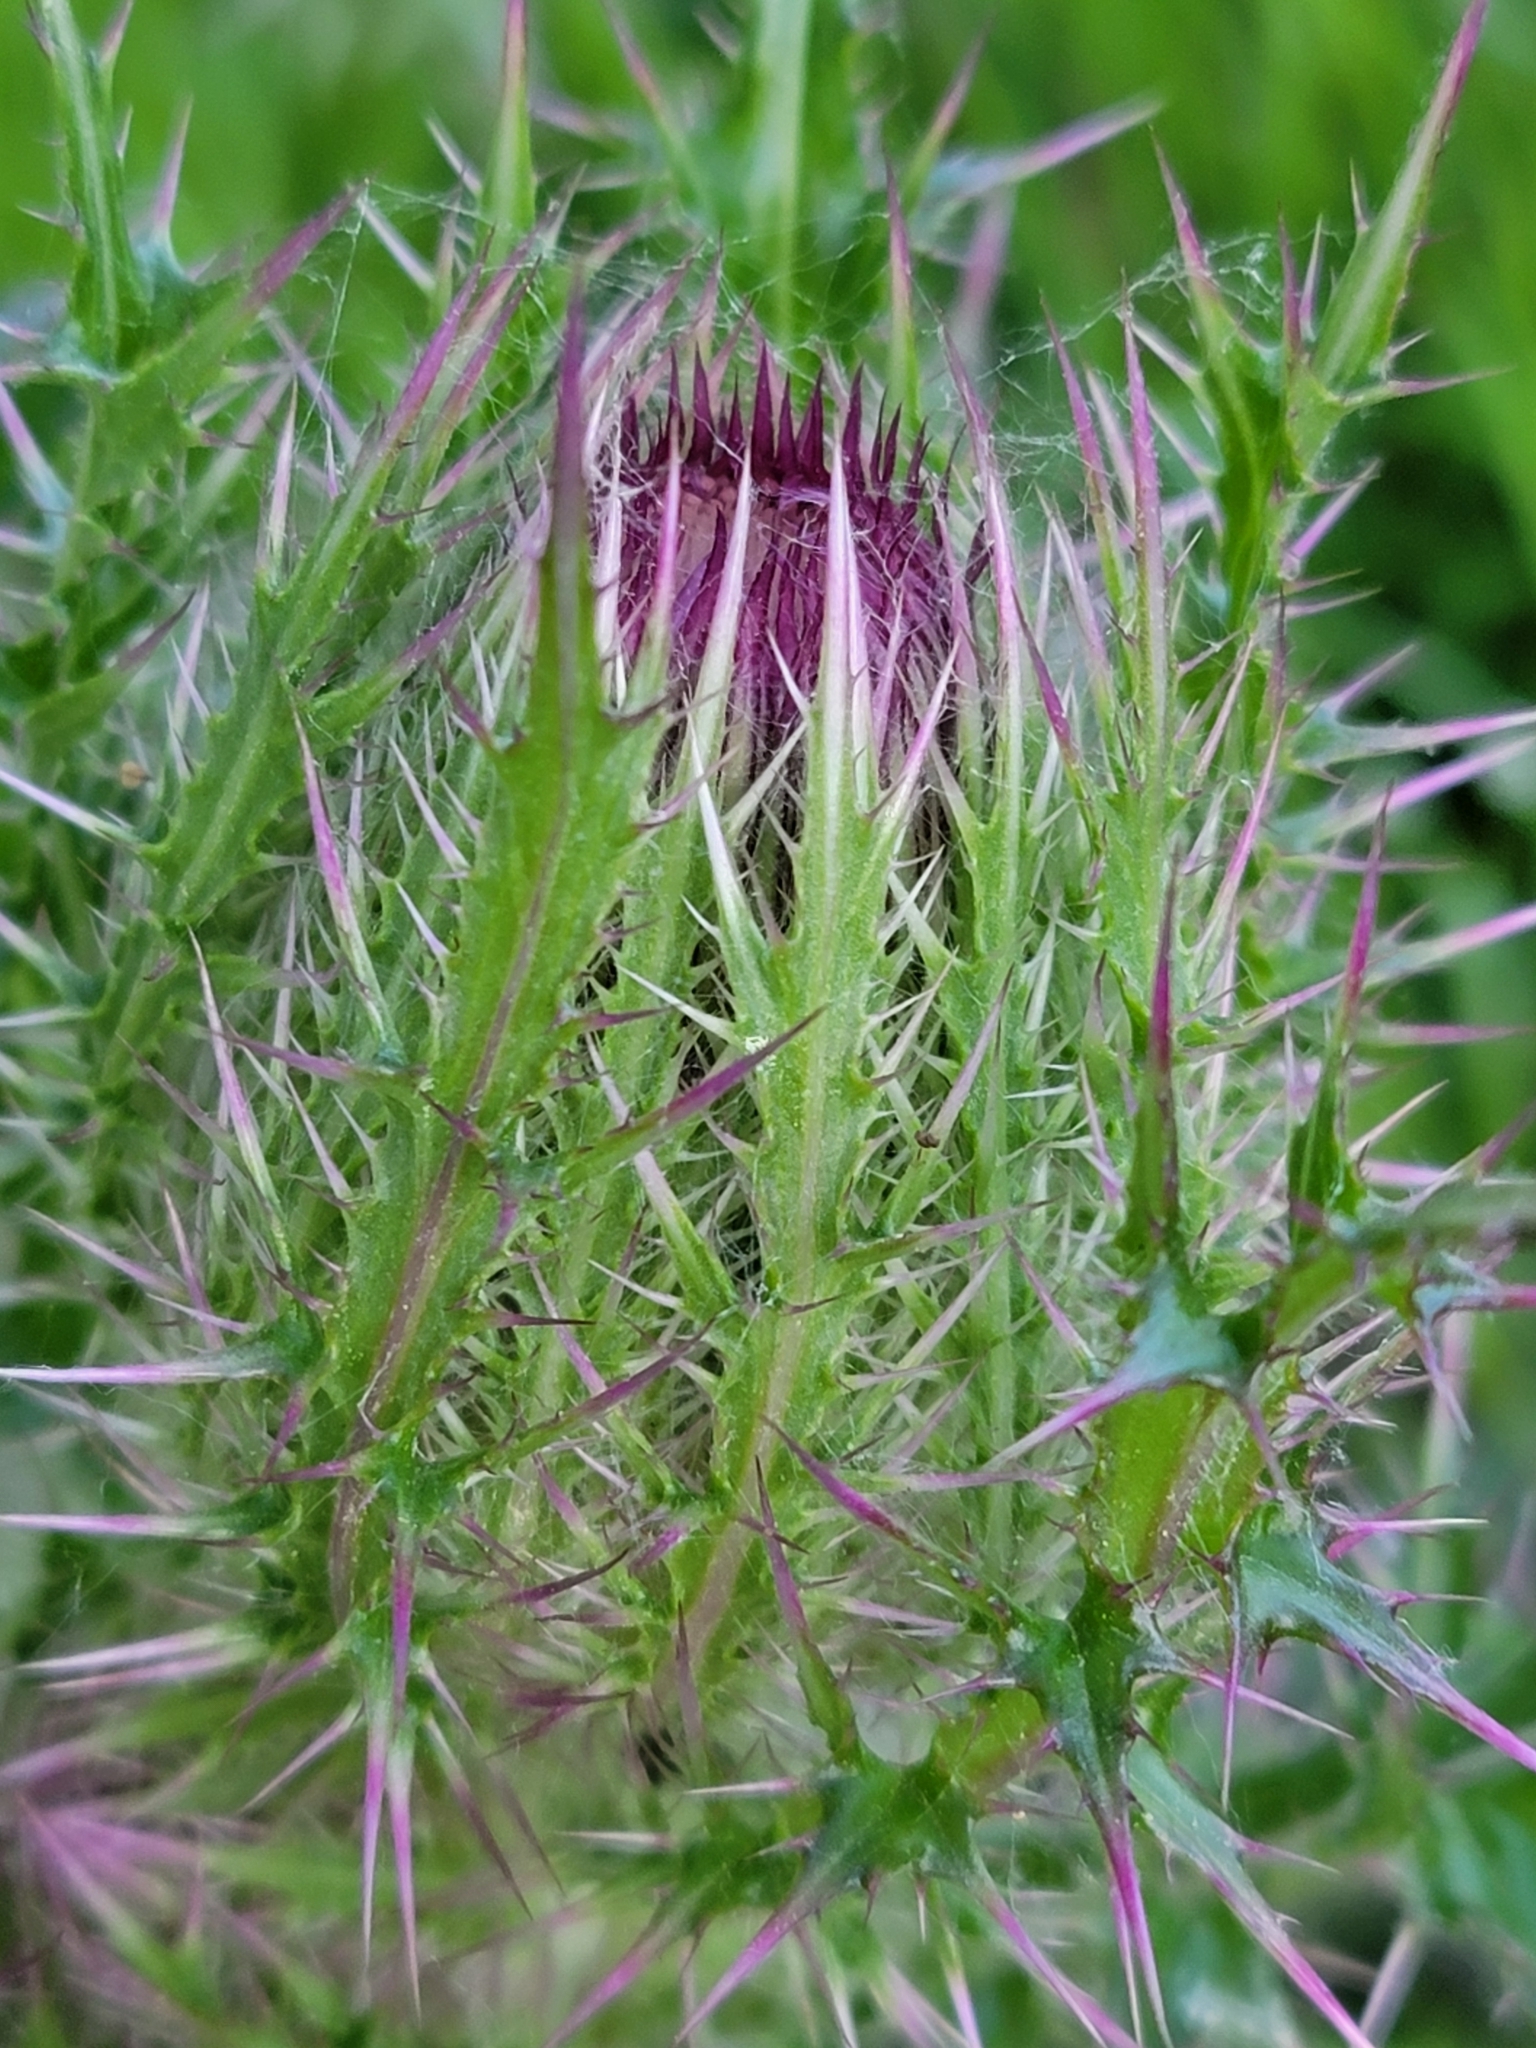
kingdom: Plantae
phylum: Tracheophyta
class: Magnoliopsida
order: Asterales
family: Asteraceae
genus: Cirsium
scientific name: Cirsium horridulum
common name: Bristly thistle
